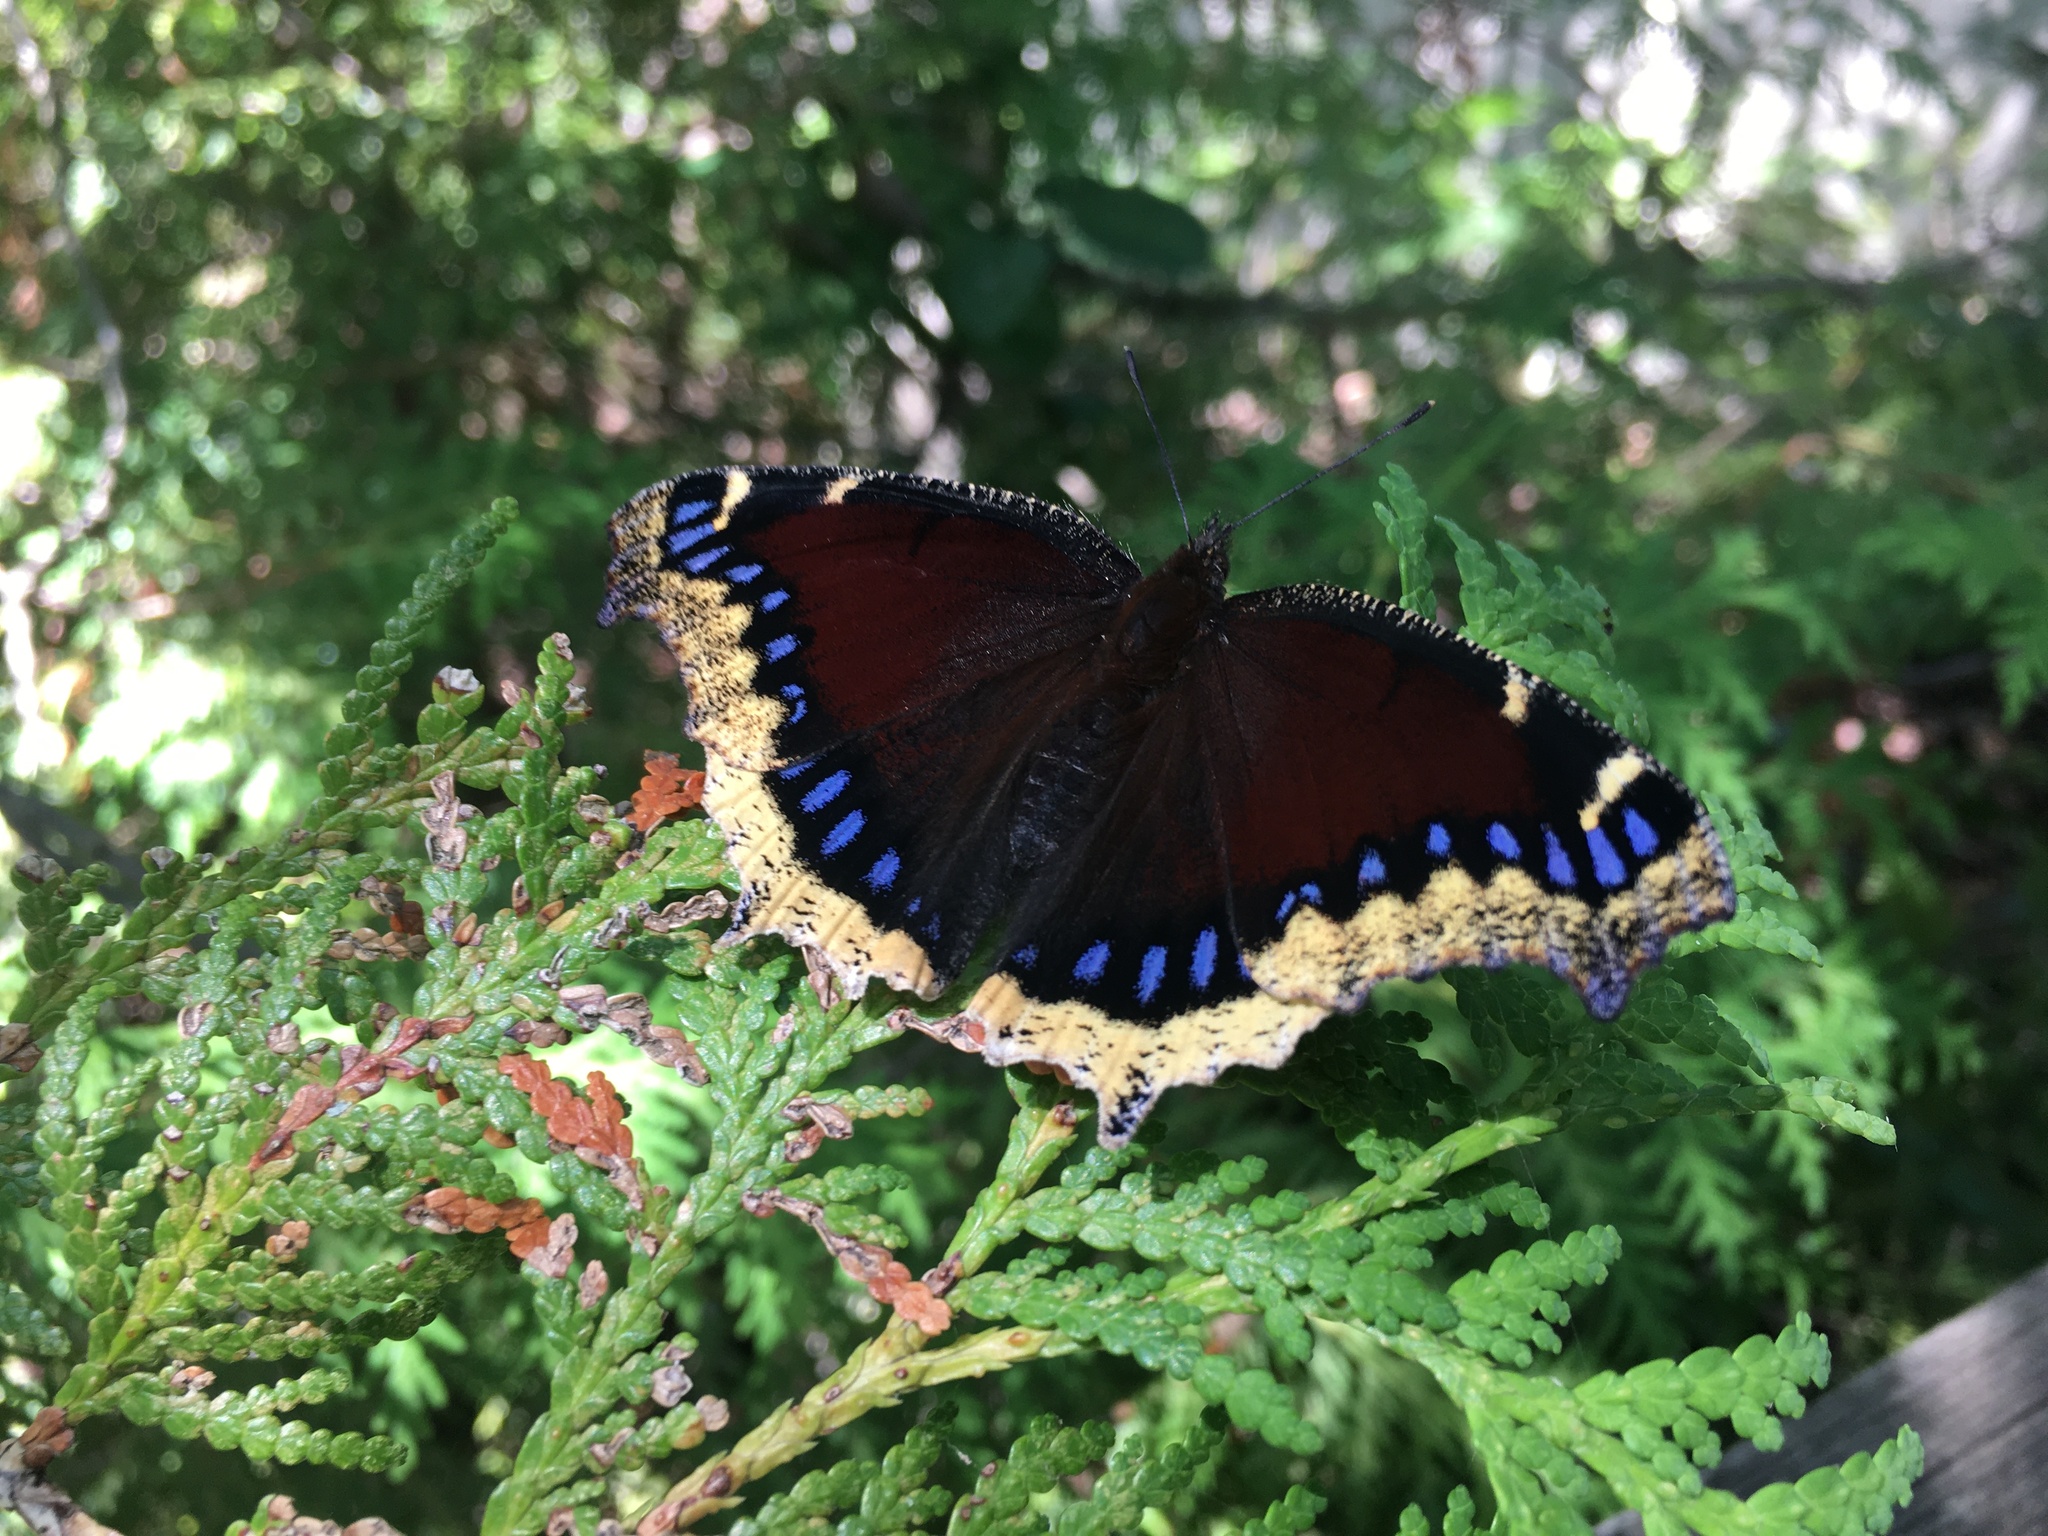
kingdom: Animalia
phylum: Arthropoda
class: Insecta
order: Lepidoptera
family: Nymphalidae
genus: Nymphalis
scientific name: Nymphalis antiopa
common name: Camberwell beauty
